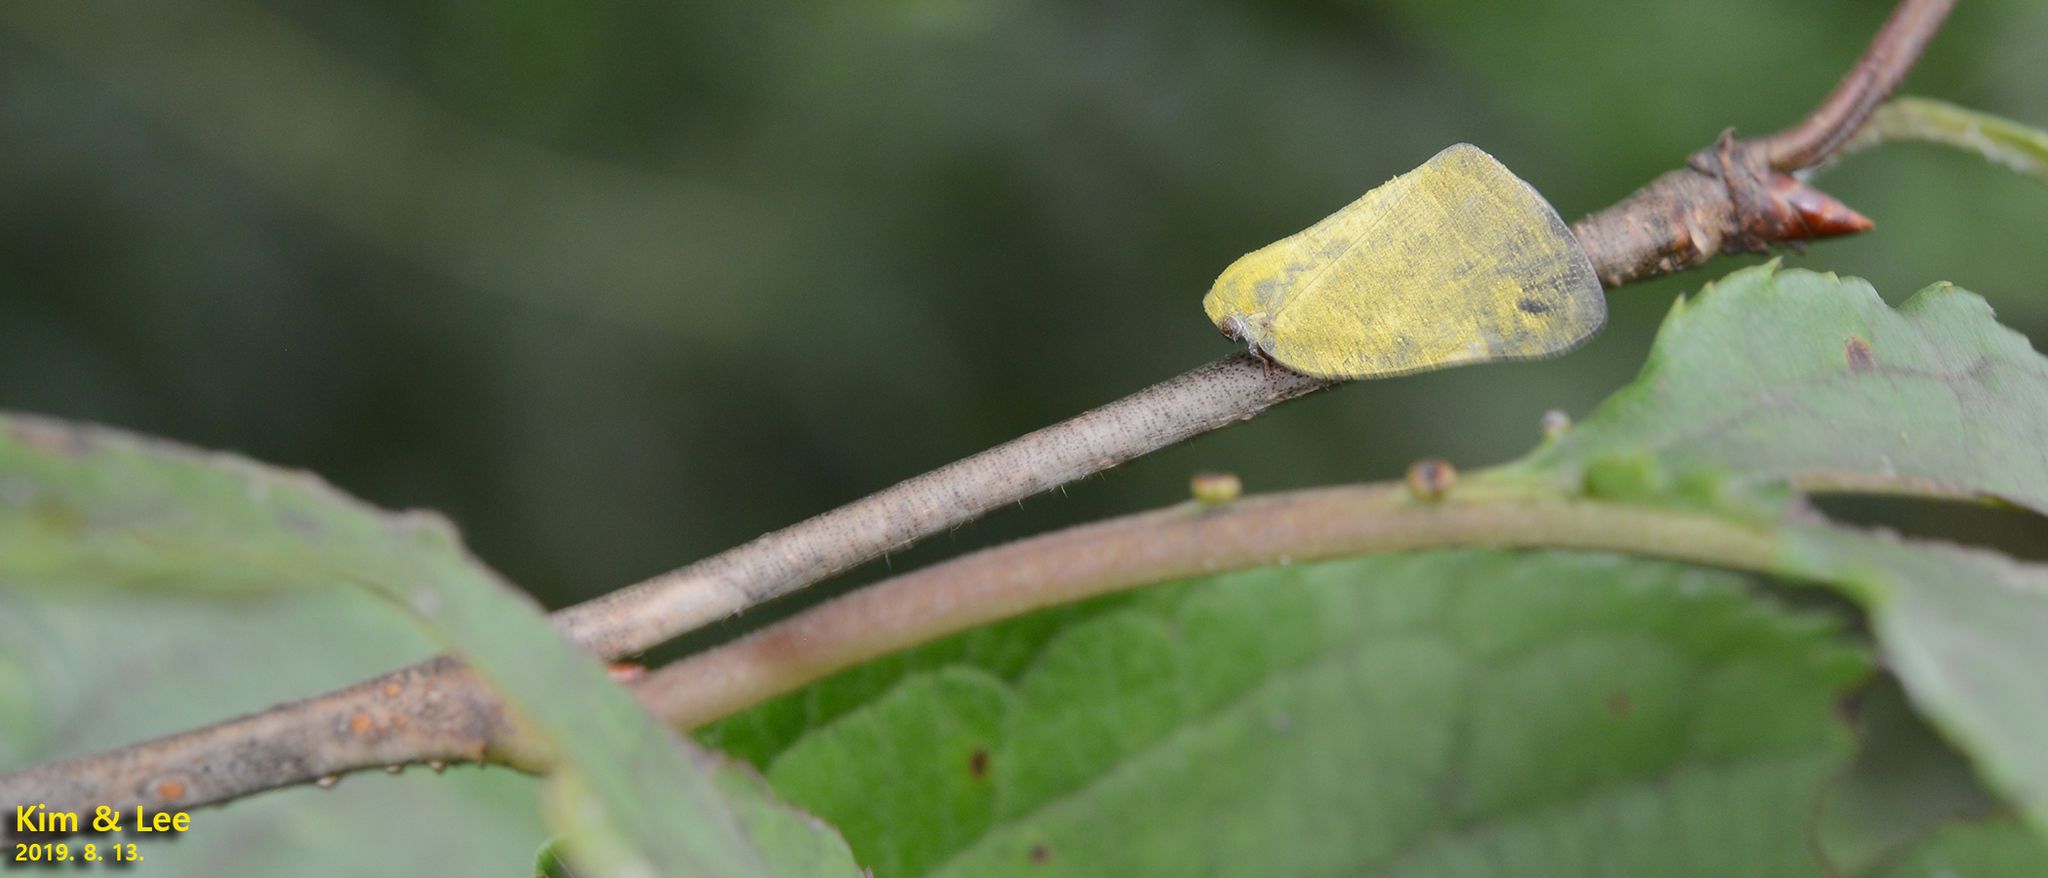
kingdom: Animalia
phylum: Arthropoda
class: Insecta
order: Hemiptera
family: Ricaniidae
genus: Ricanula
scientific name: Ricanula sublimata
